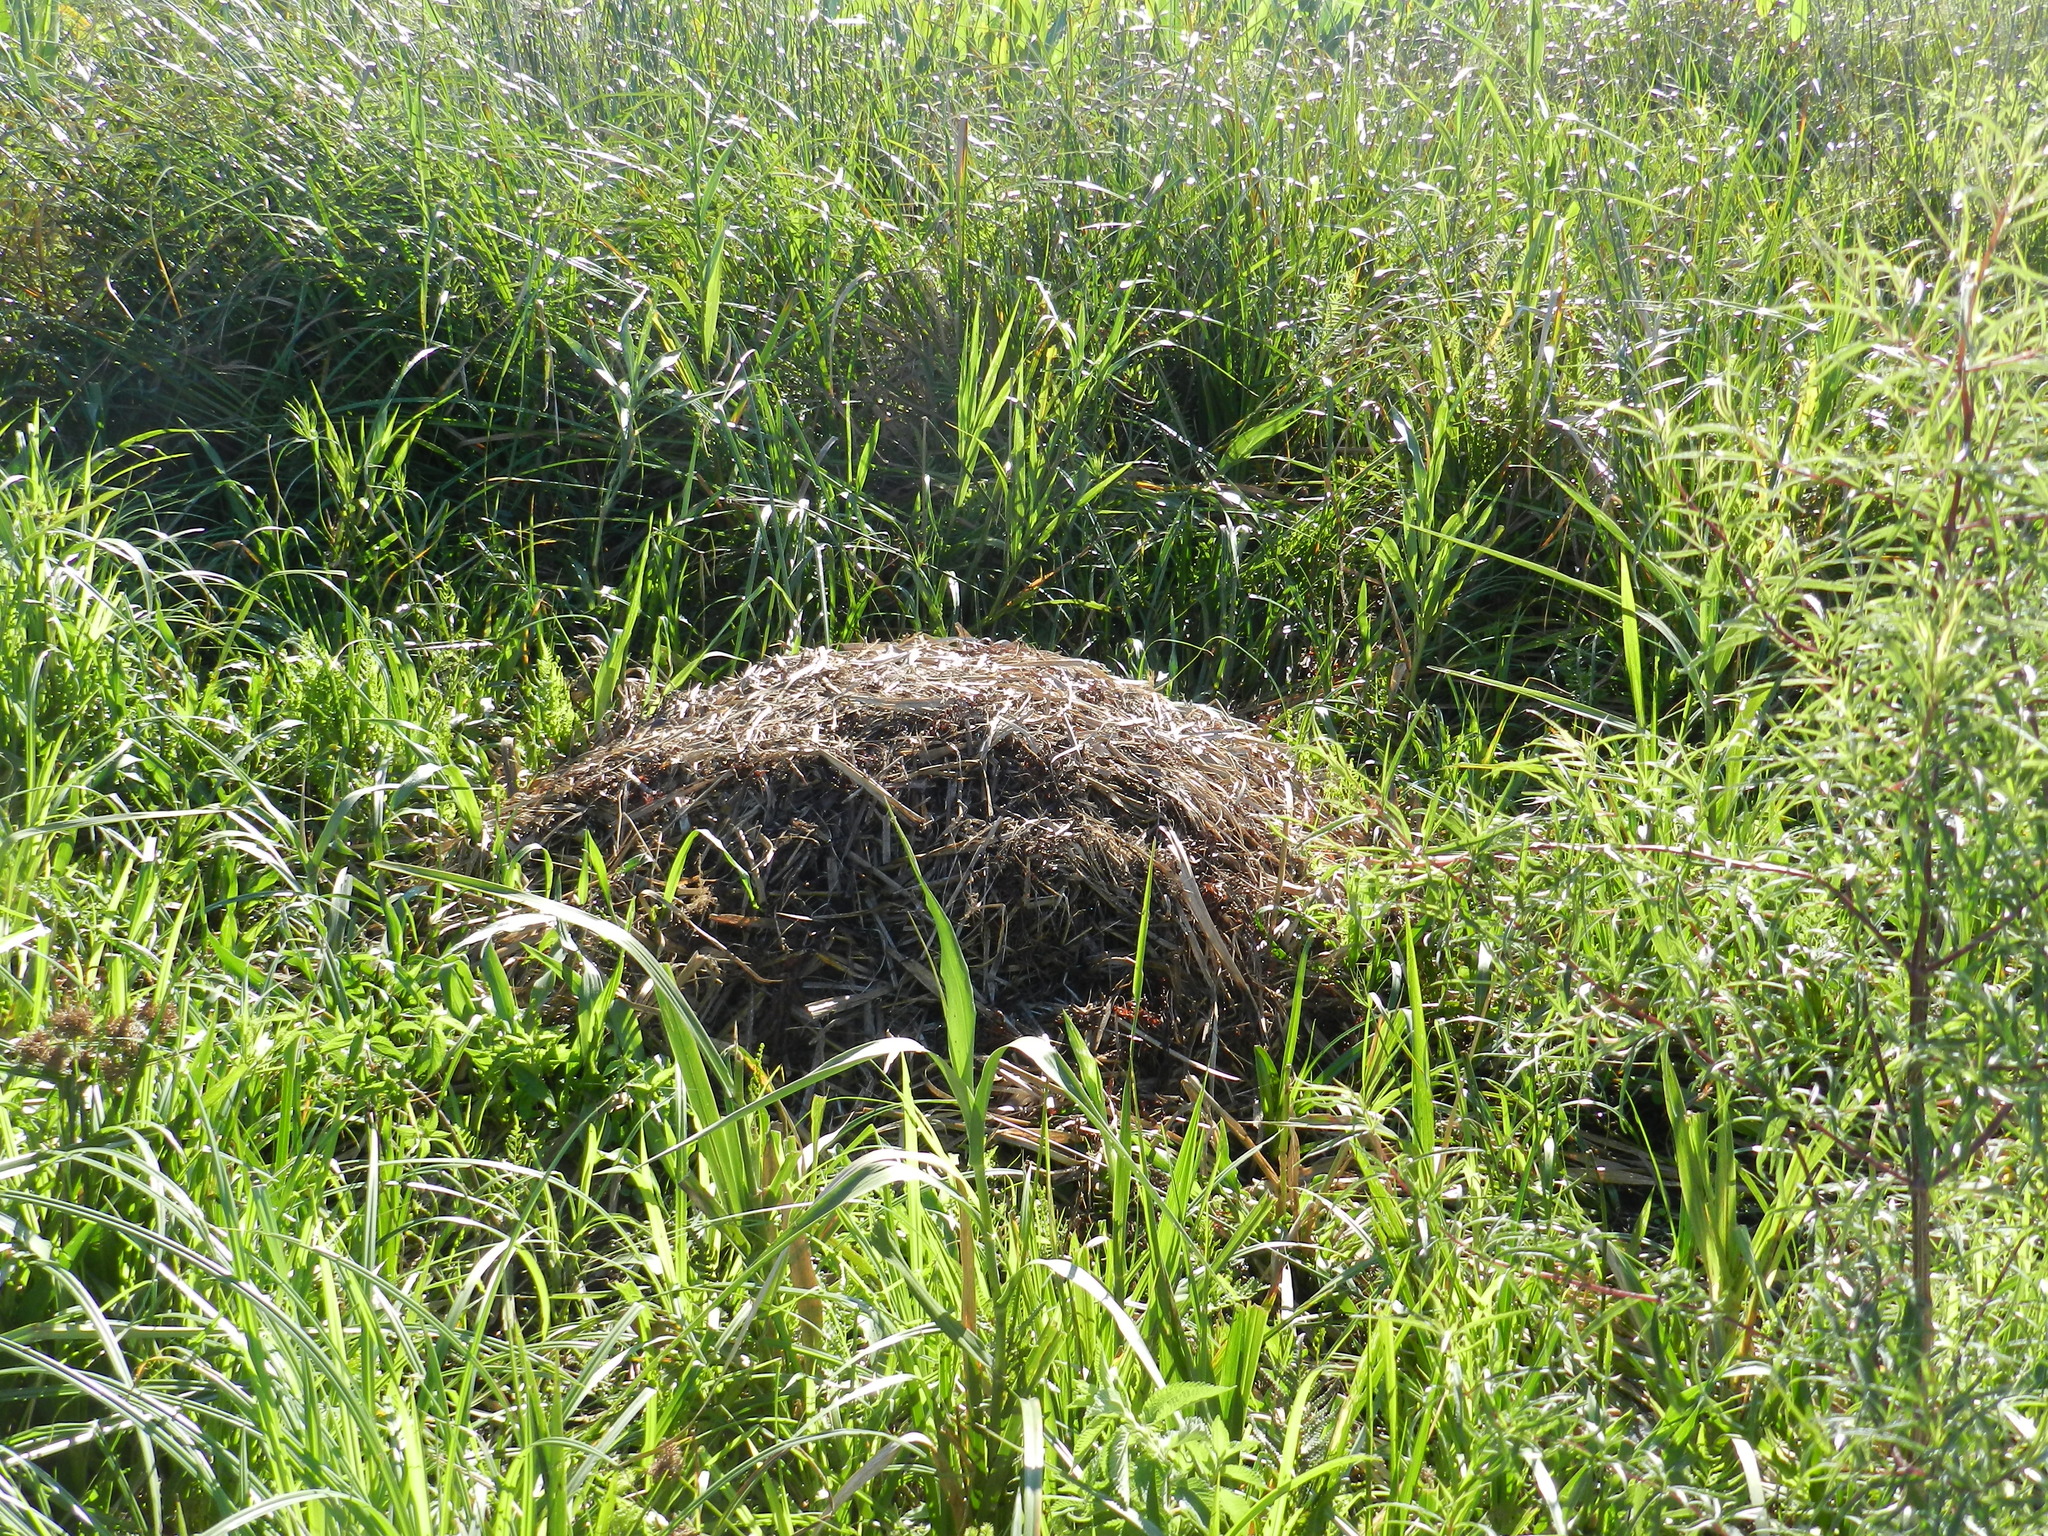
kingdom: Animalia
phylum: Chordata
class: Crocodylia
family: Alligatoridae
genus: Caiman
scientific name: Caiman yacare
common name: Yacare caiman
